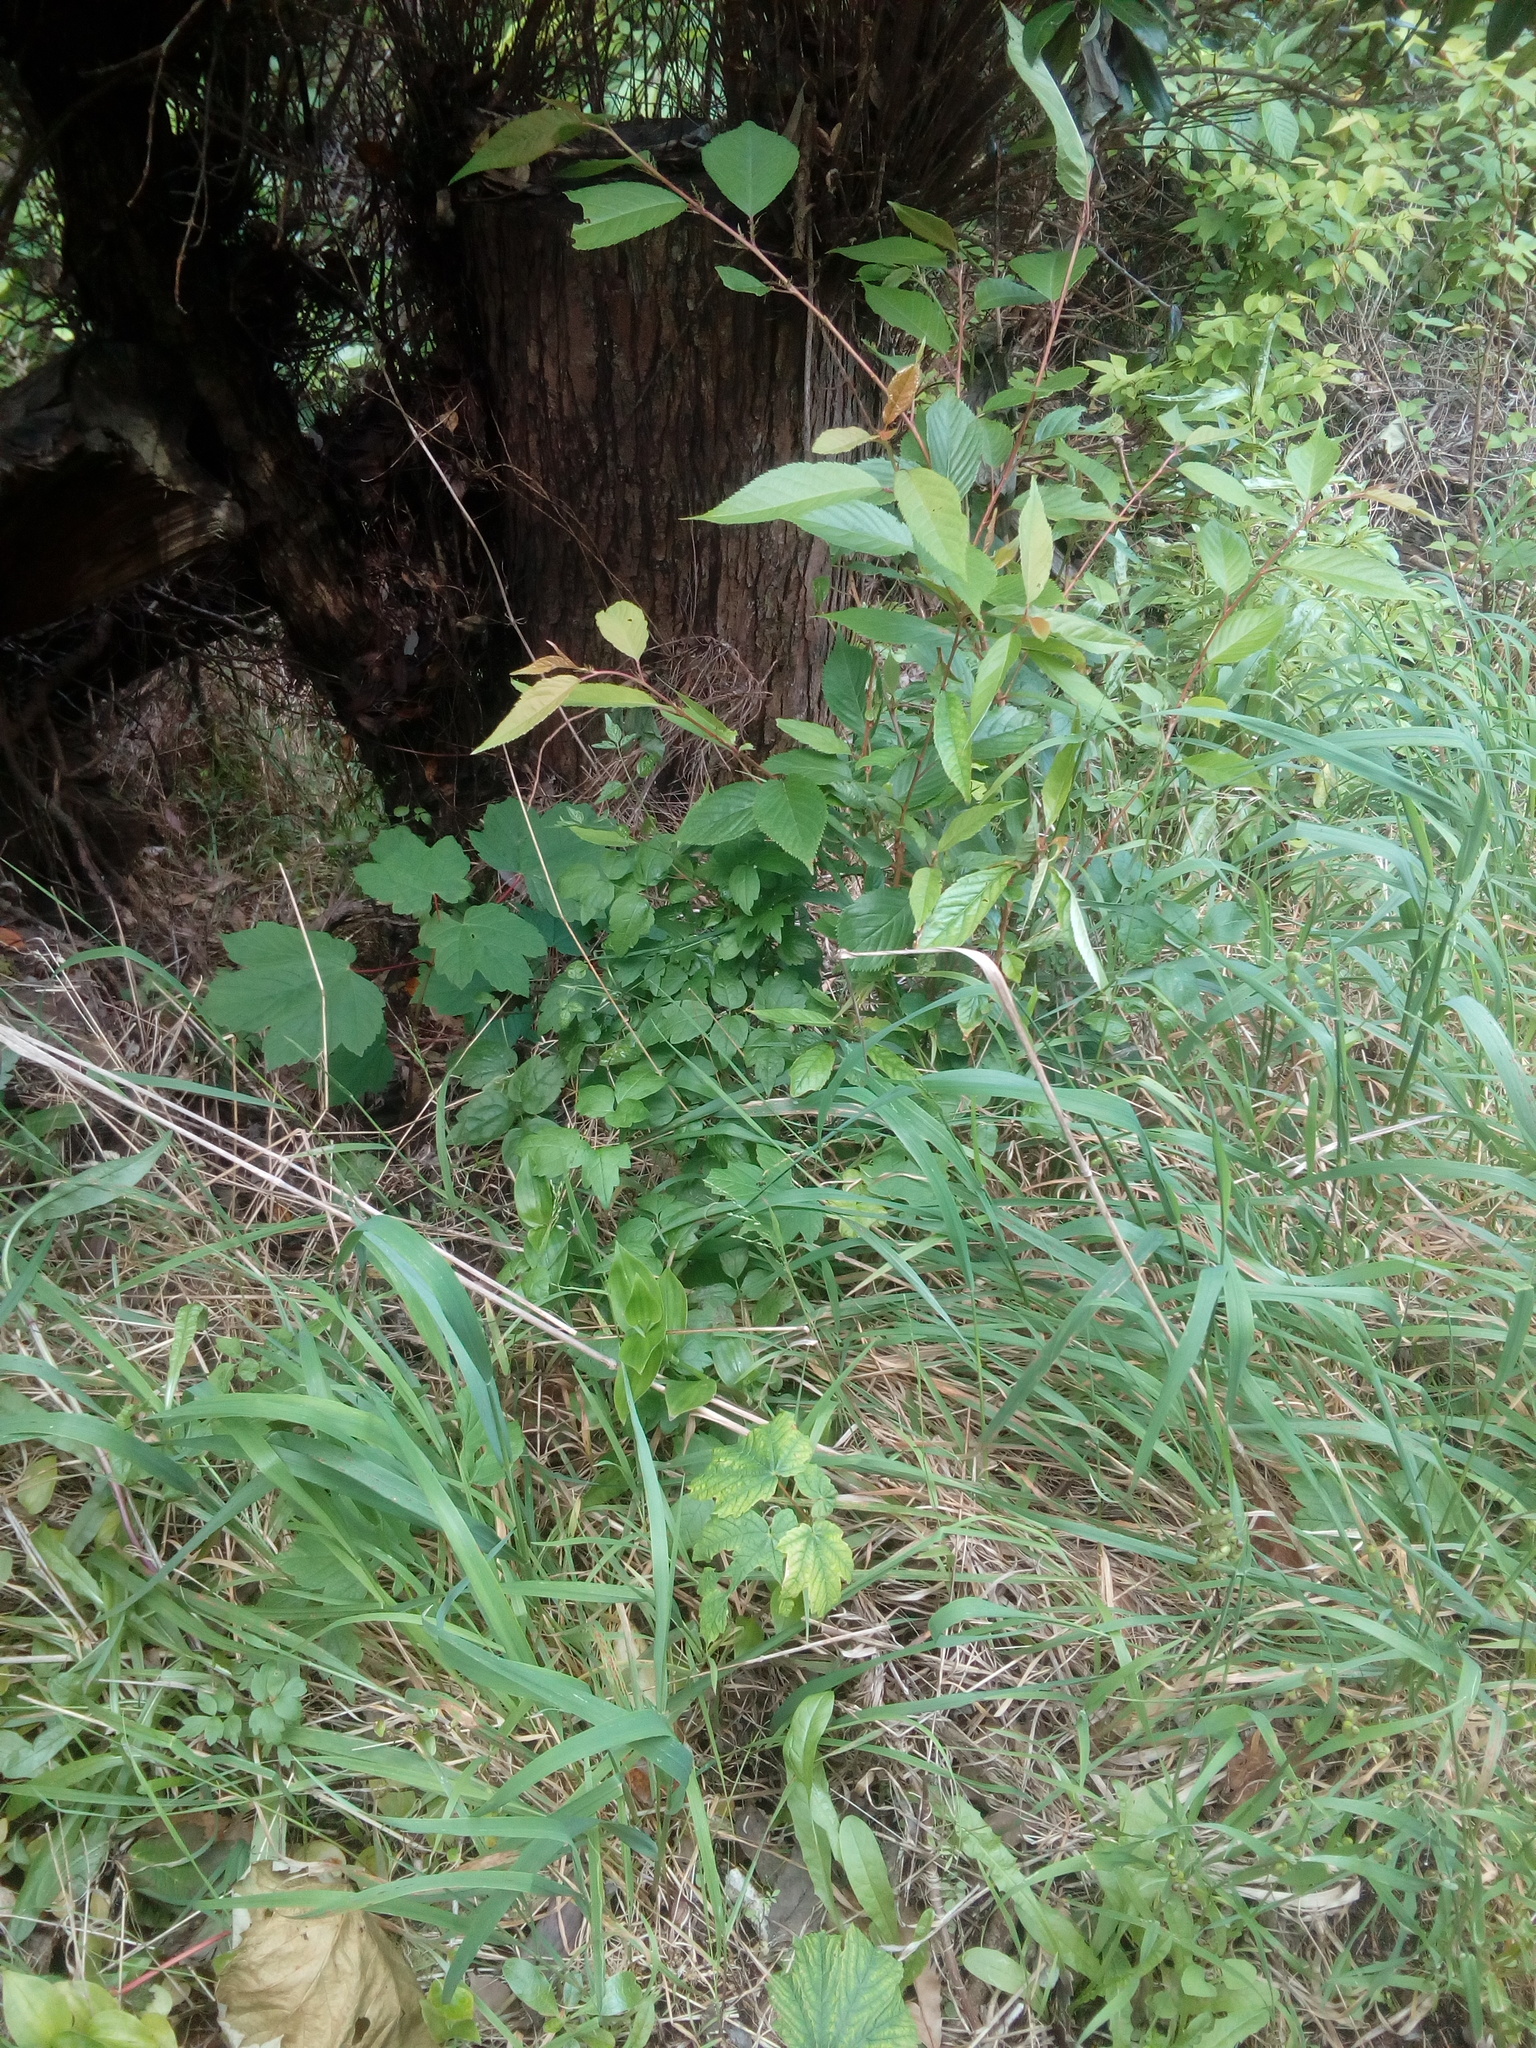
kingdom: Plantae
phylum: Tracheophyta
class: Magnoliopsida
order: Ranunculales
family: Ranunculaceae
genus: Clematis
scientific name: Clematis vitalba
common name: Evergreen clematis
